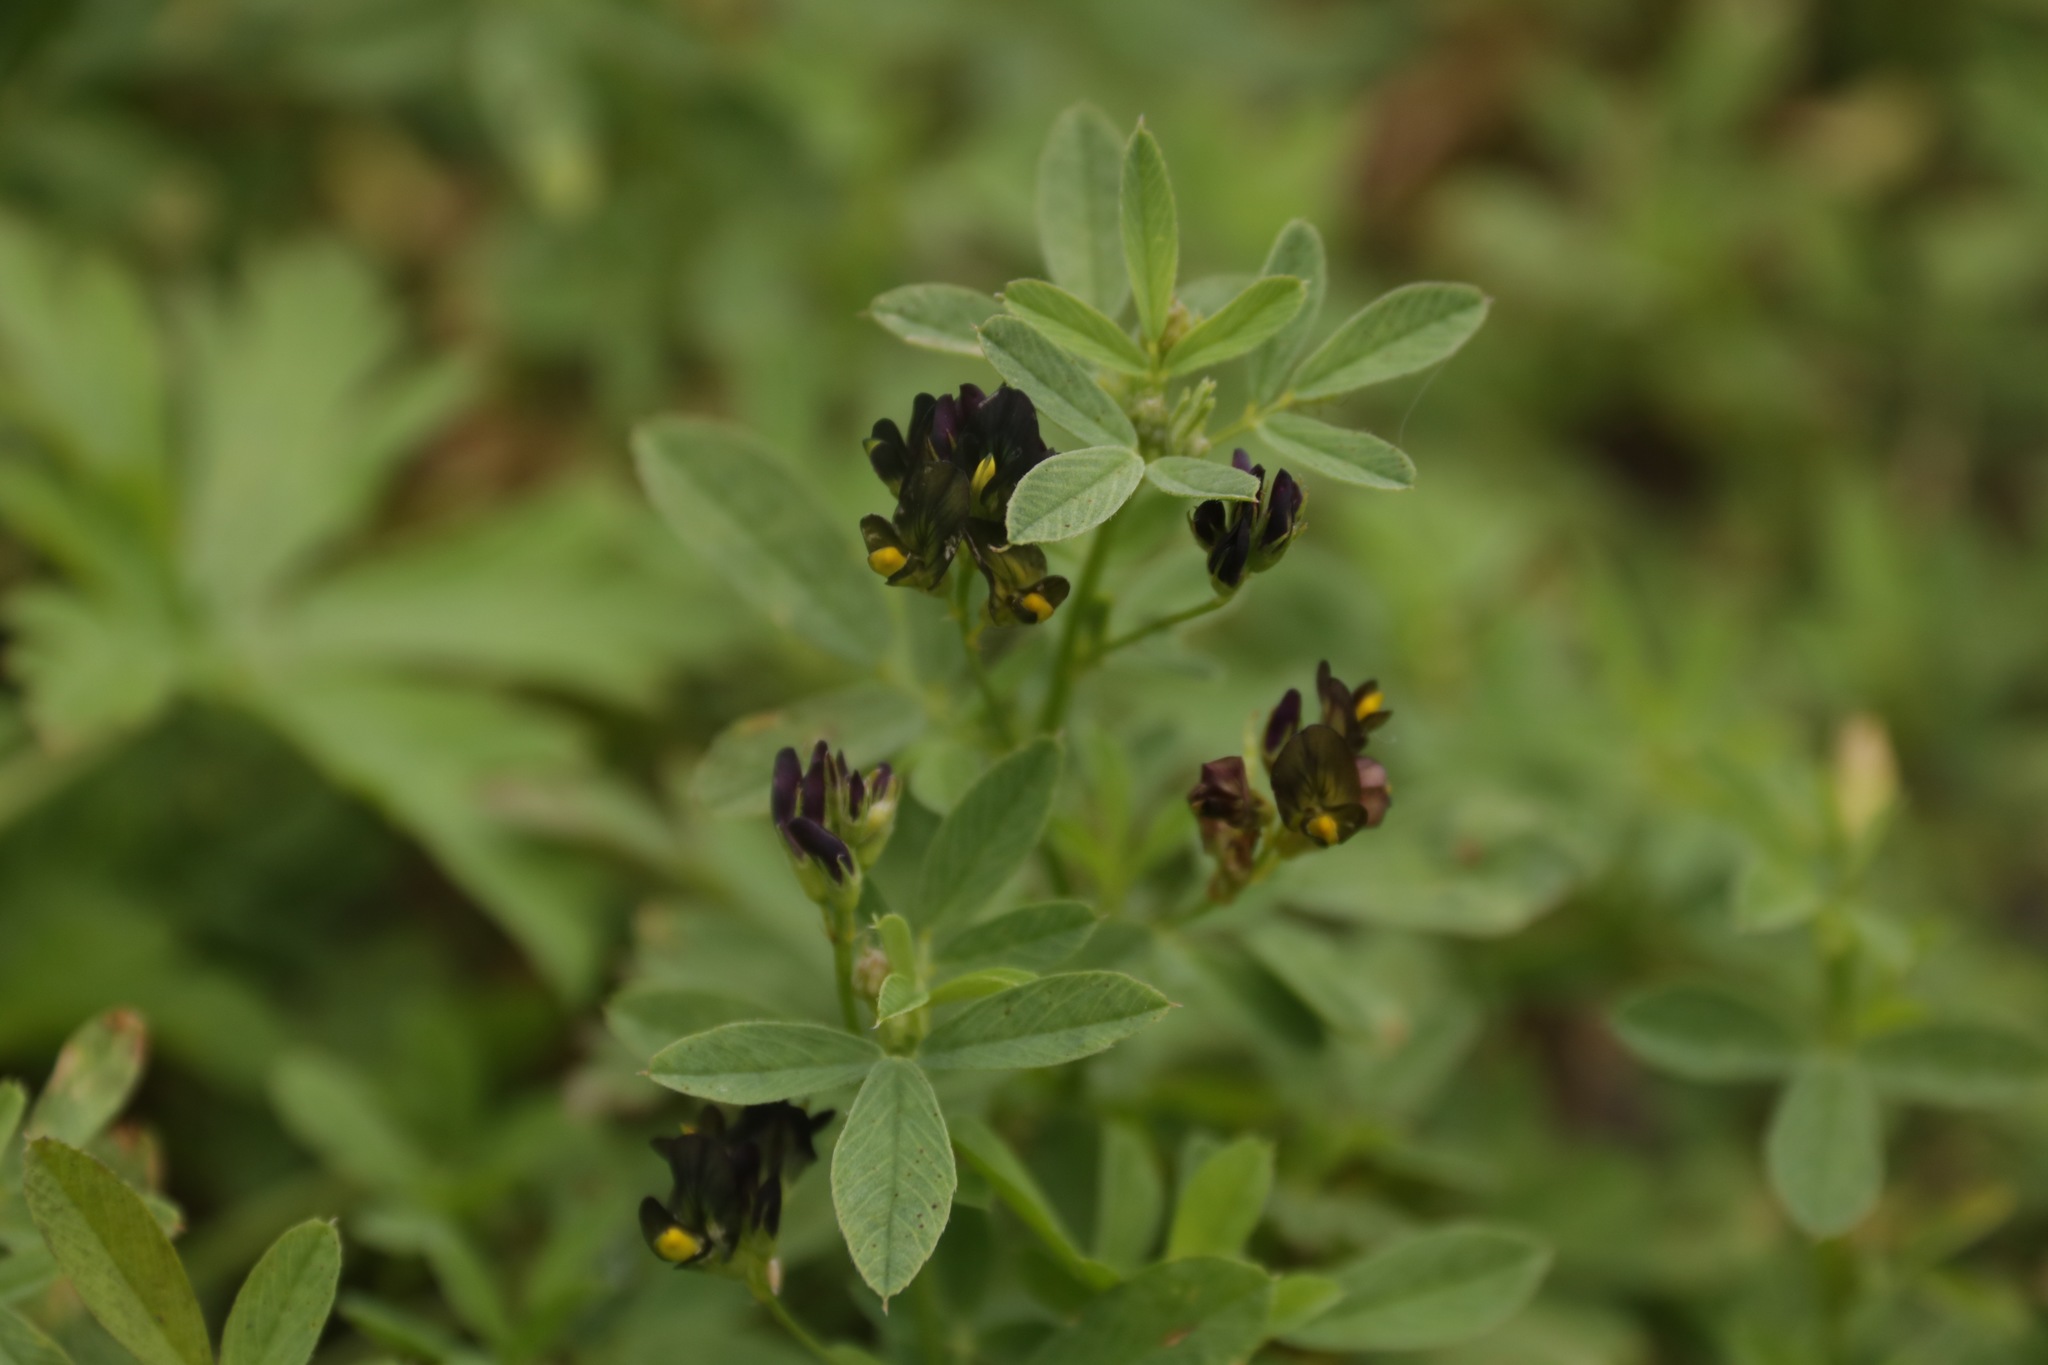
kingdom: Plantae
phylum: Tracheophyta
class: Magnoliopsida
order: Fabales
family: Fabaceae
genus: Medicago
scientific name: Medicago varia
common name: Sand lucerne
